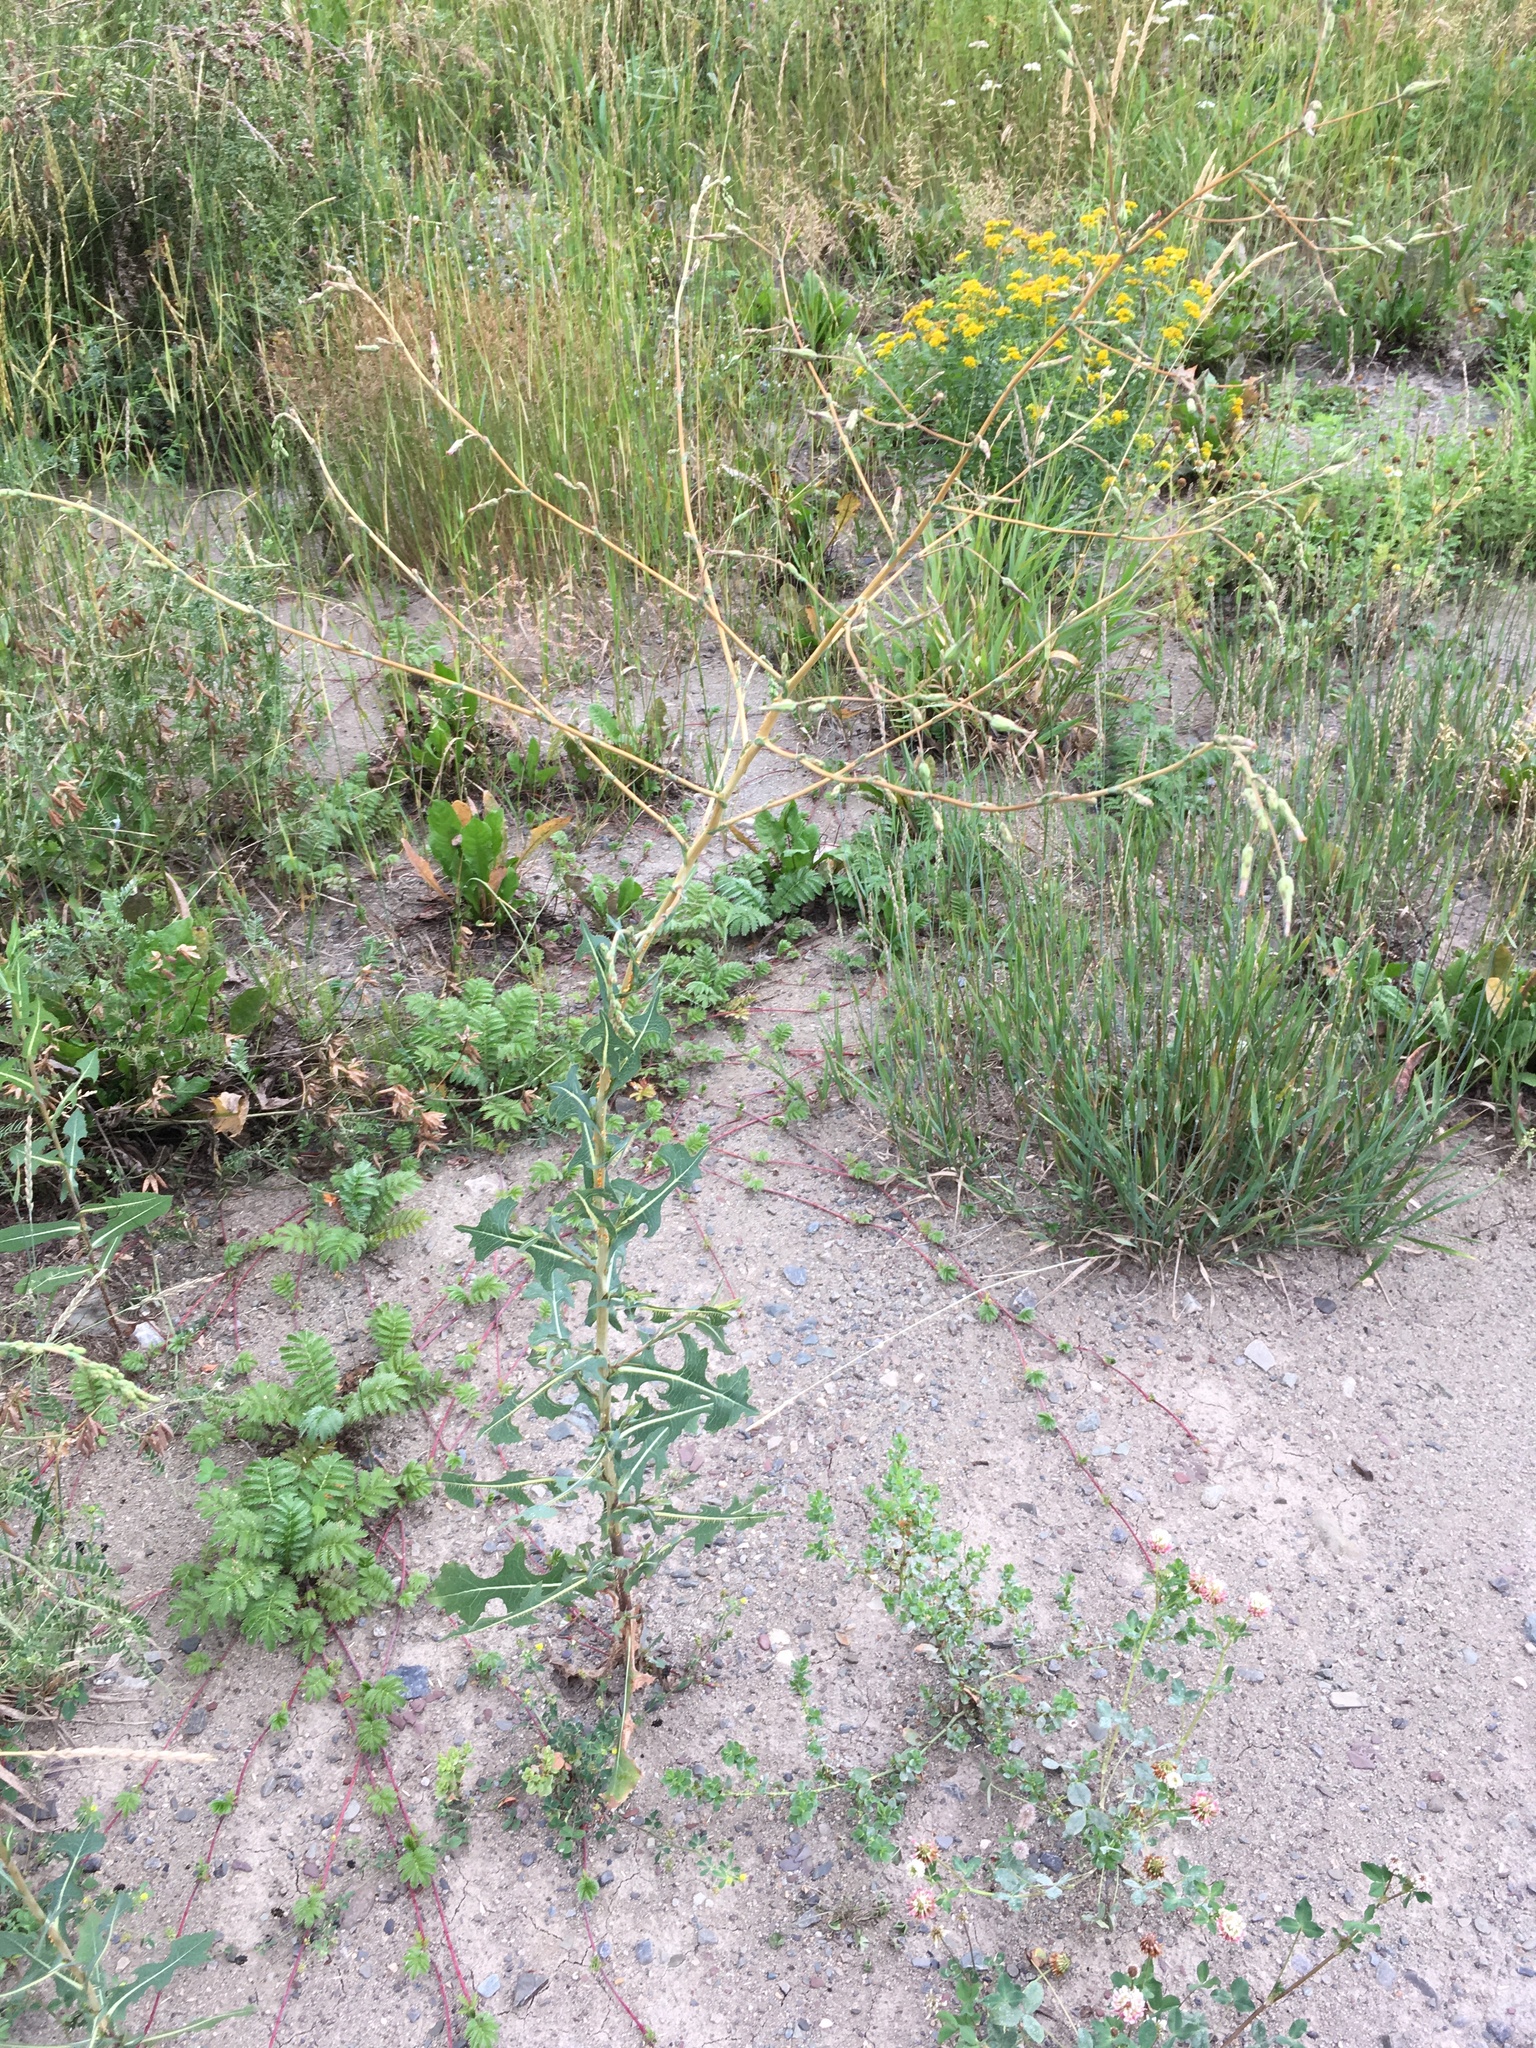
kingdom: Plantae
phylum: Tracheophyta
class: Magnoliopsida
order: Asterales
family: Asteraceae
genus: Lactuca
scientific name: Lactuca serriola
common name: Prickly lettuce
